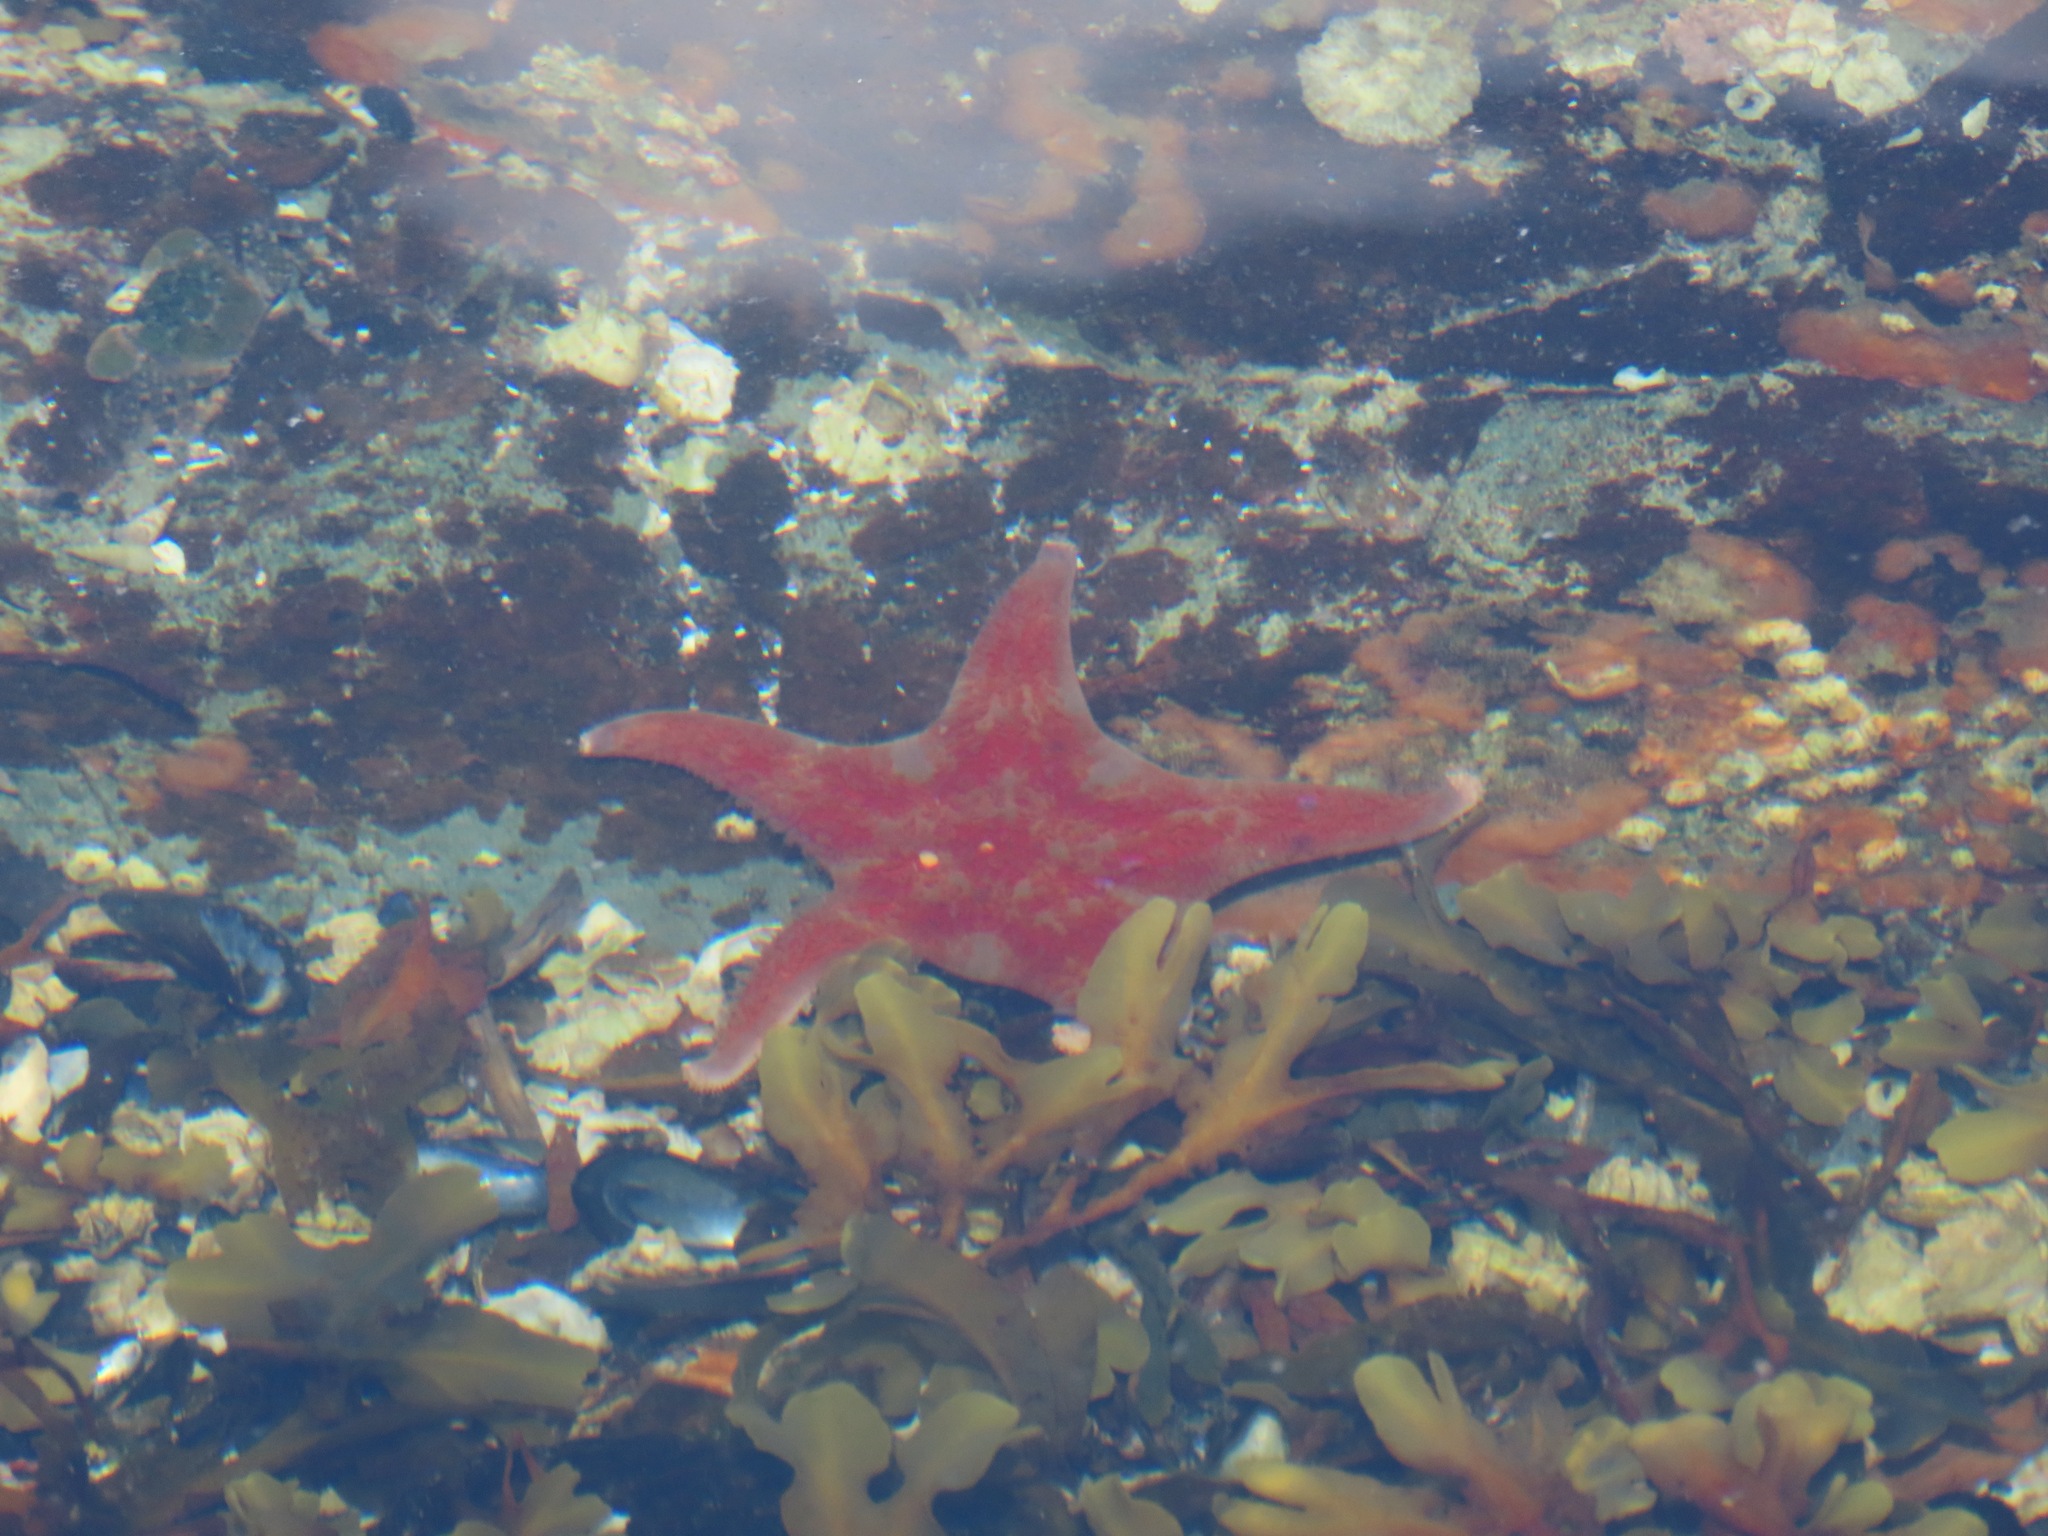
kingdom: Animalia
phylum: Echinodermata
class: Asteroidea
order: Valvatida
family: Asteropseidae
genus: Dermasterias
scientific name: Dermasterias imbricata
